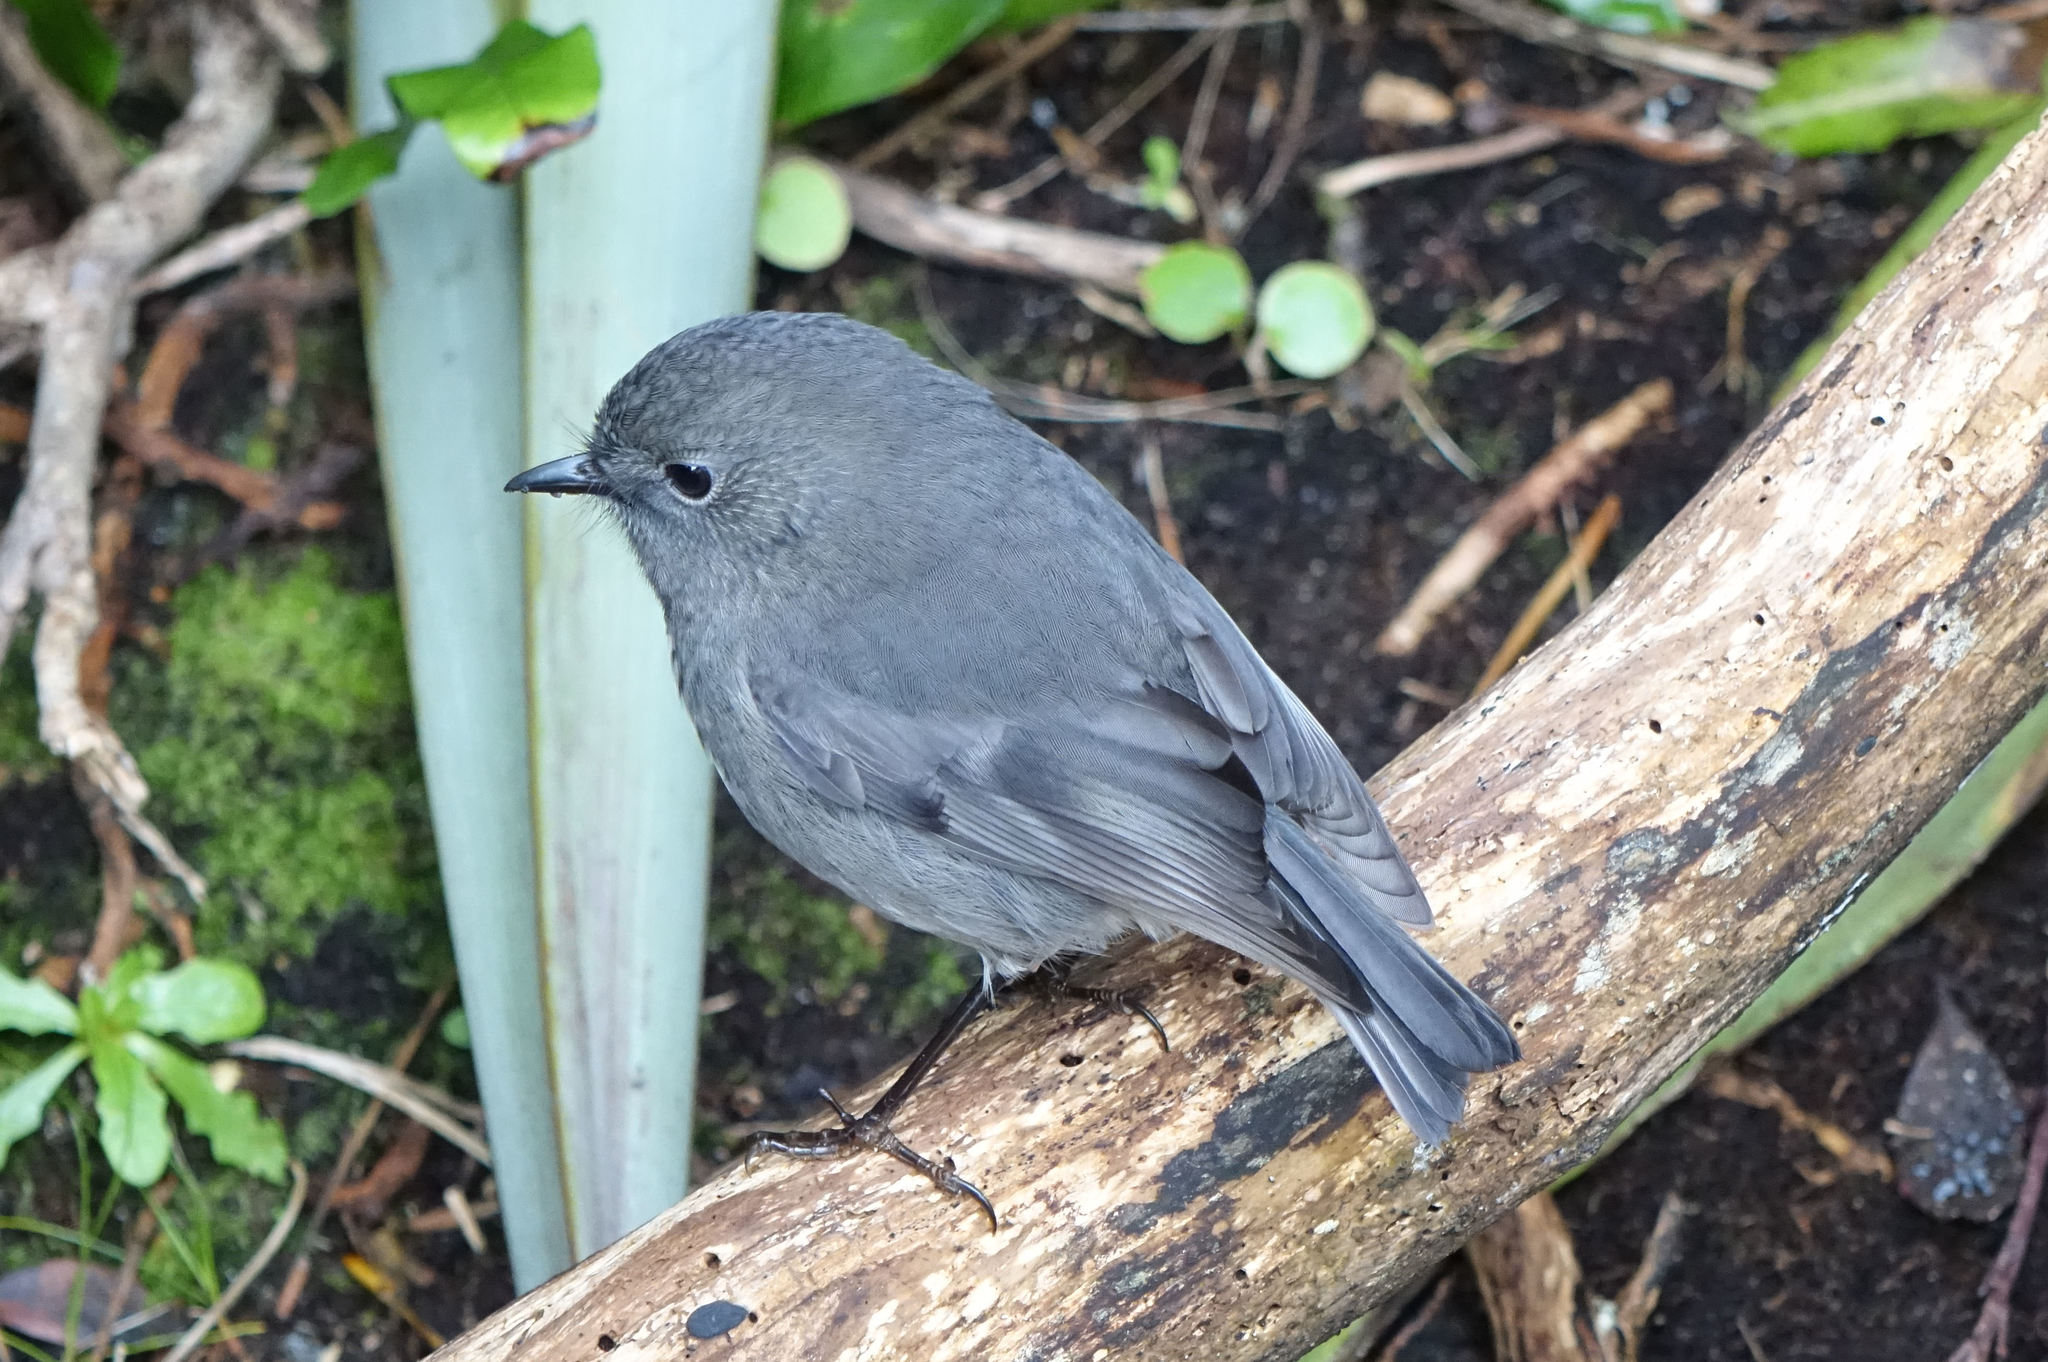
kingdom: Animalia
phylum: Chordata
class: Aves
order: Passeriformes
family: Petroicidae
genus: Petroica
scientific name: Petroica australis
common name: New zealand robin
